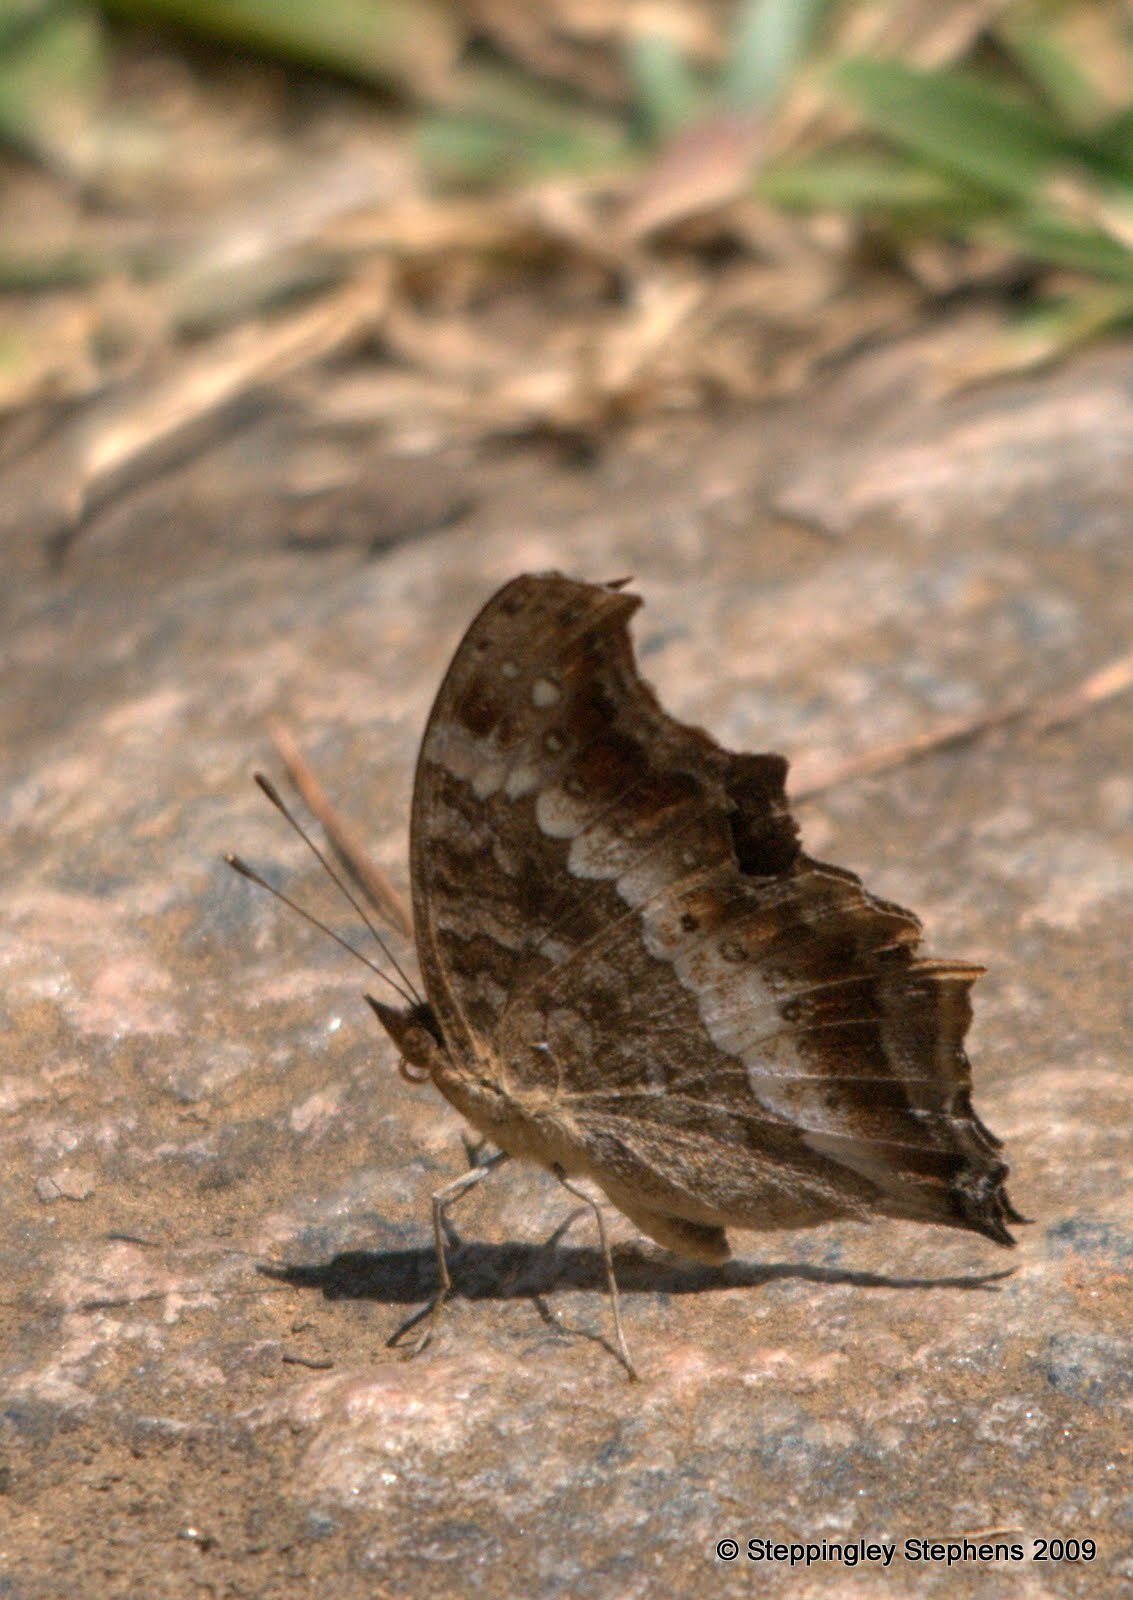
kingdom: Animalia
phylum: Arthropoda
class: Insecta
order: Lepidoptera
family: Nymphalidae
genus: Precis
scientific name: Precis andremiaja
